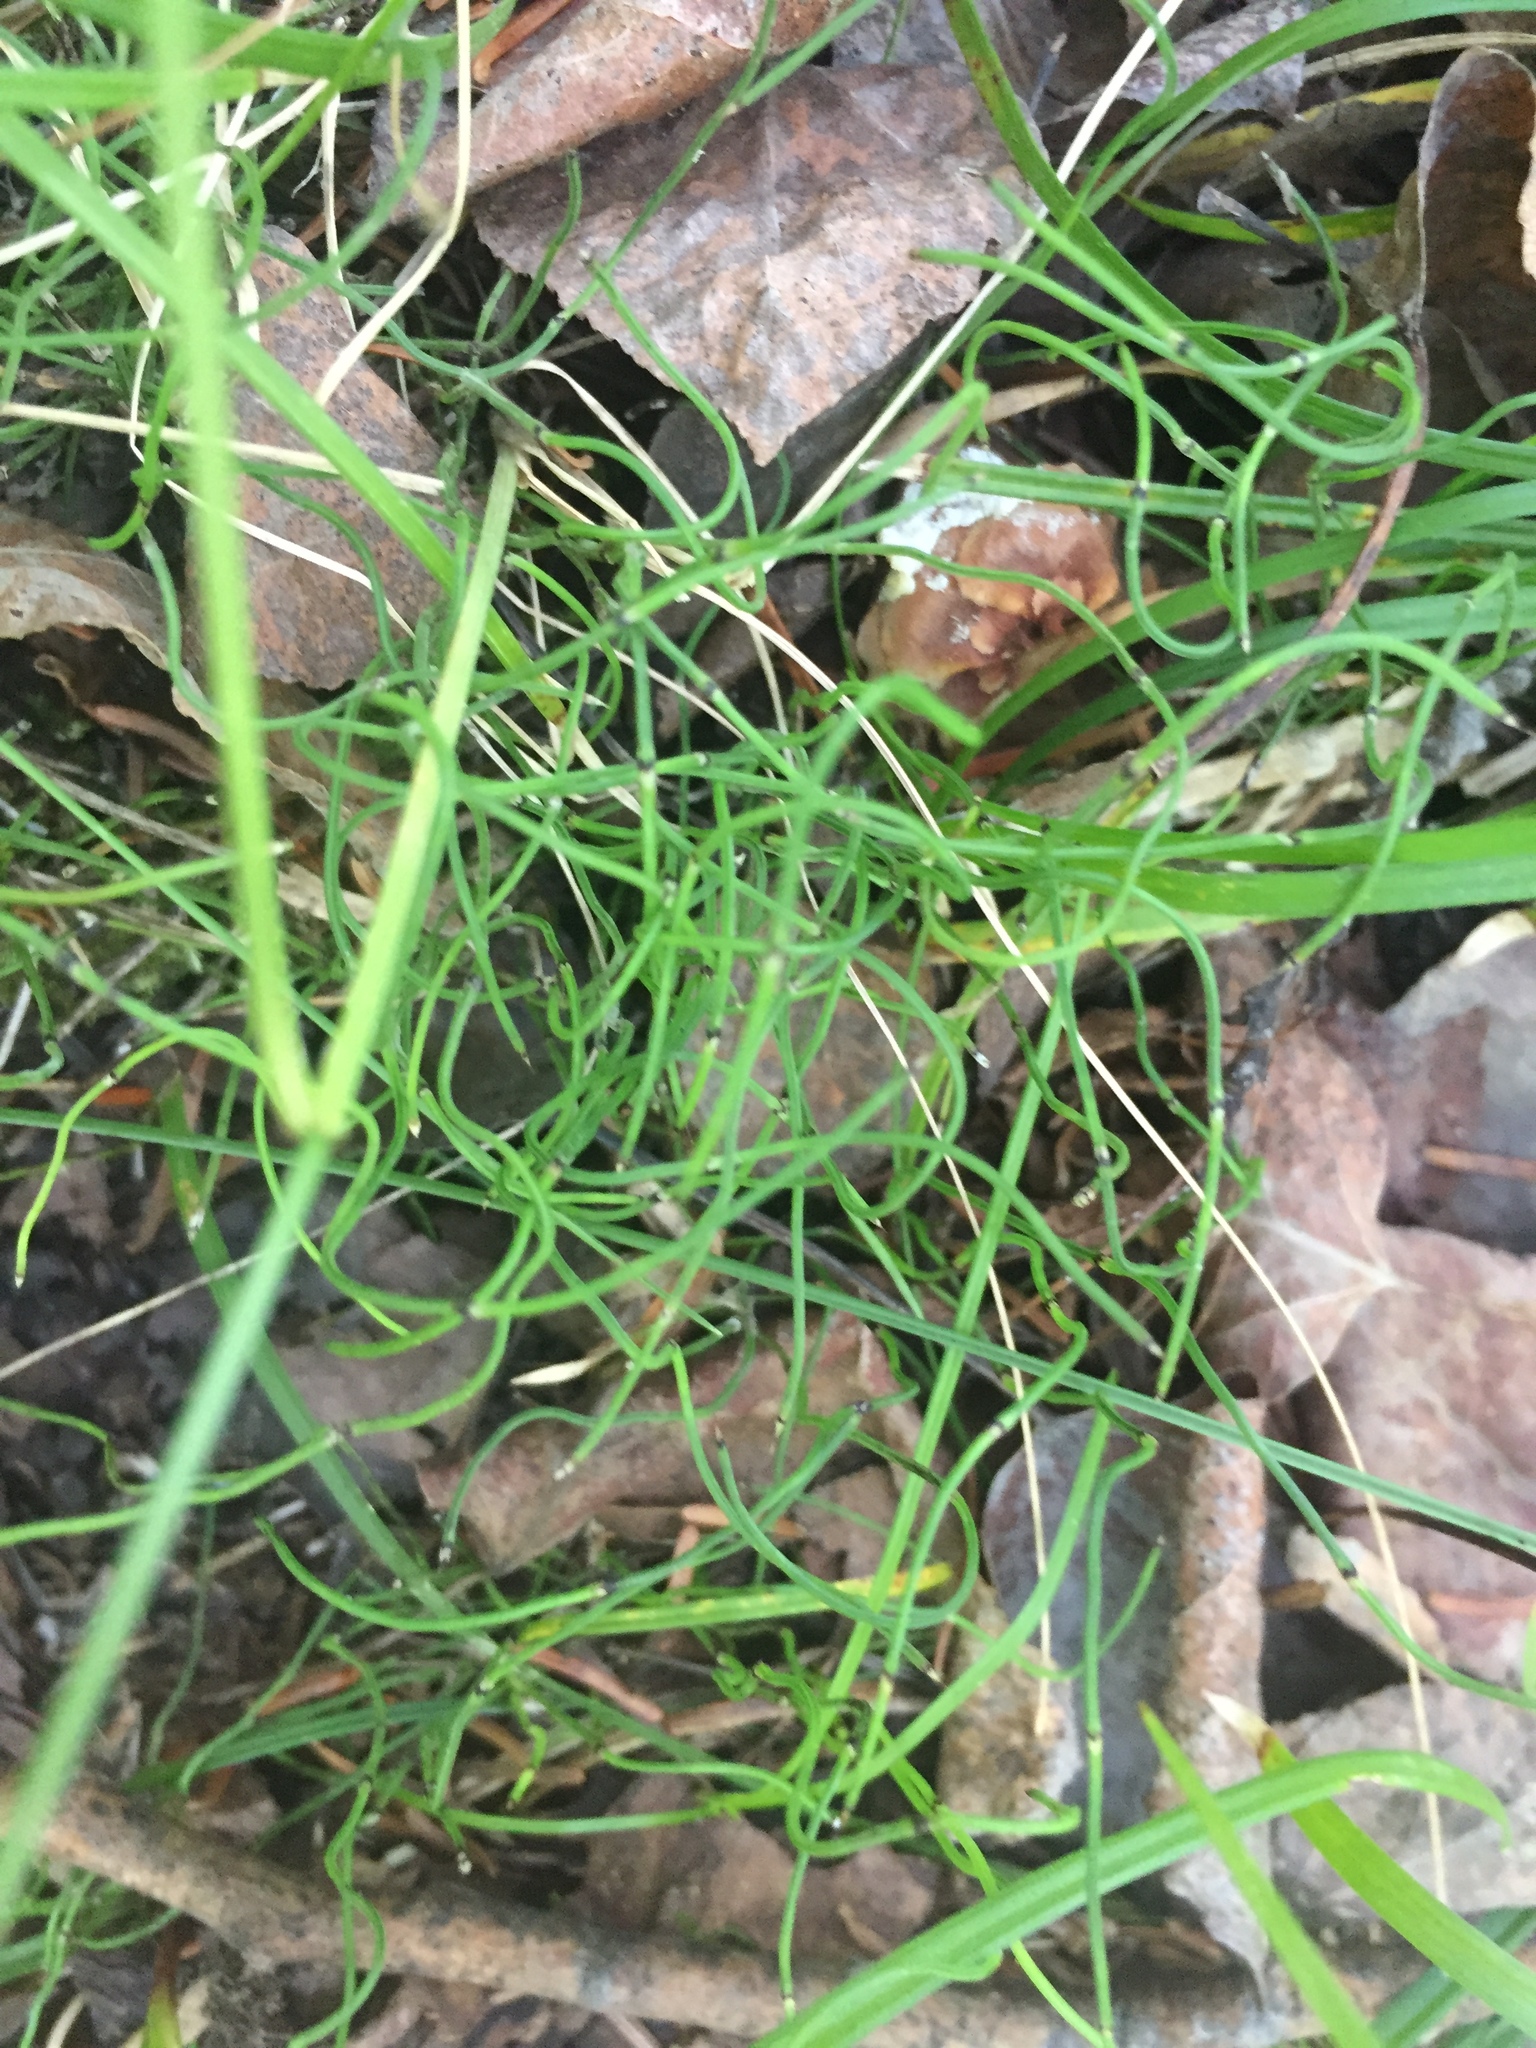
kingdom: Plantae
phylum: Tracheophyta
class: Polypodiopsida
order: Equisetales
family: Equisetaceae
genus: Equisetum
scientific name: Equisetum scirpoides
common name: Delicate horsetail
